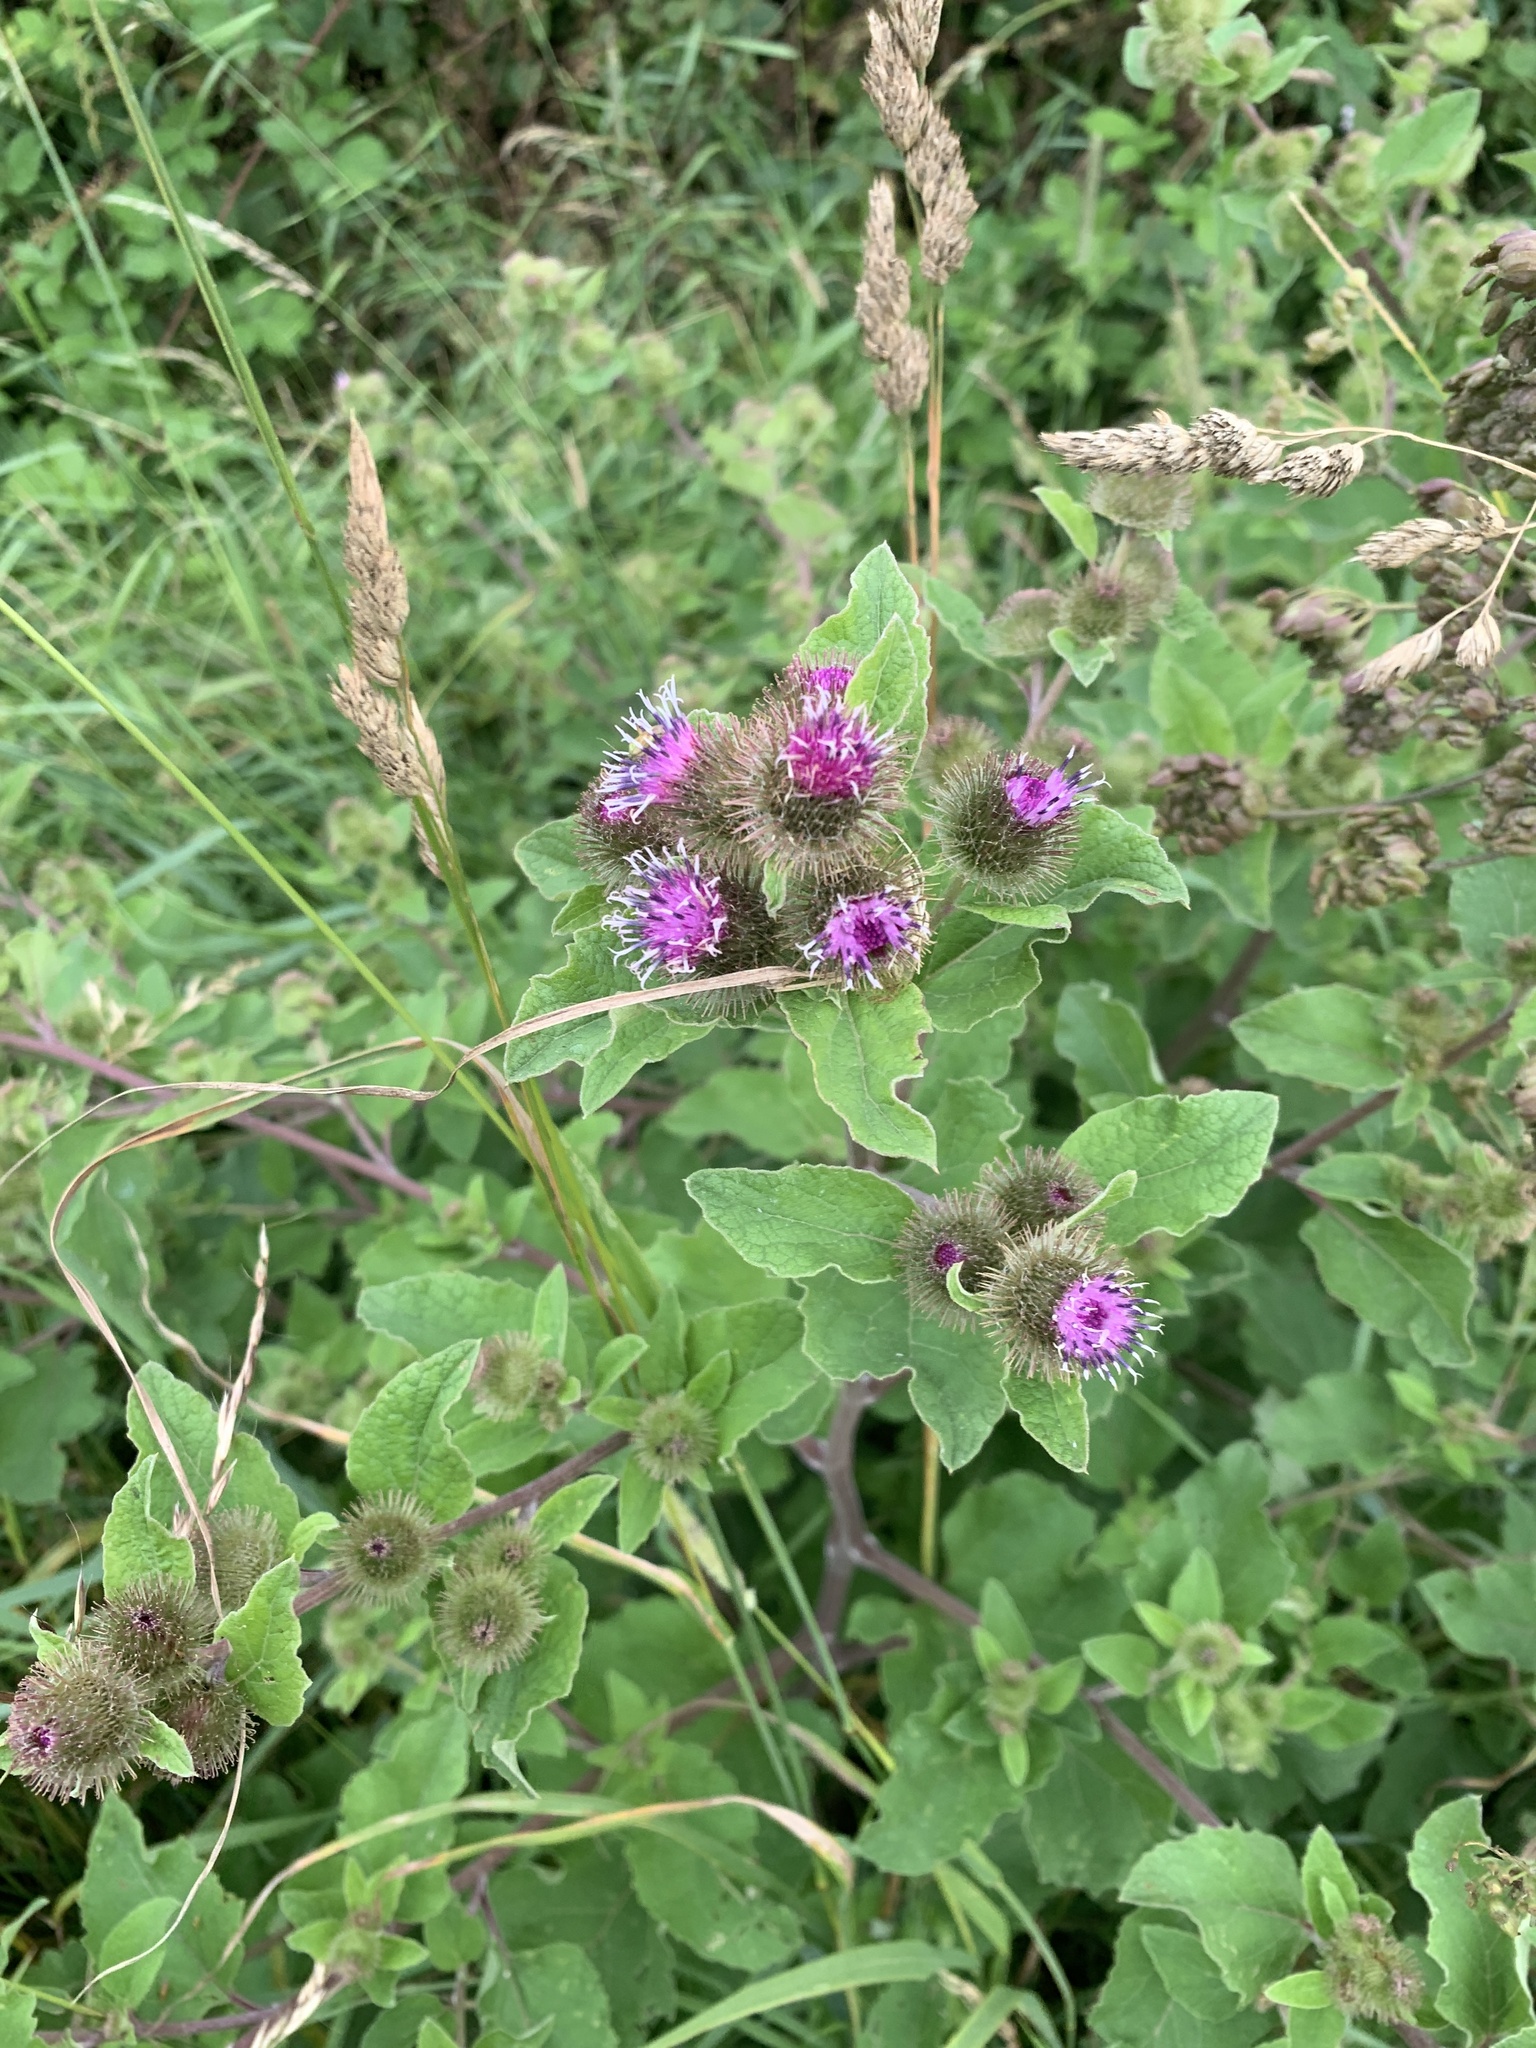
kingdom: Plantae
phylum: Tracheophyta
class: Magnoliopsida
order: Asterales
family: Asteraceae
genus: Arctium
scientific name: Arctium lappa
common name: Greater burdock
